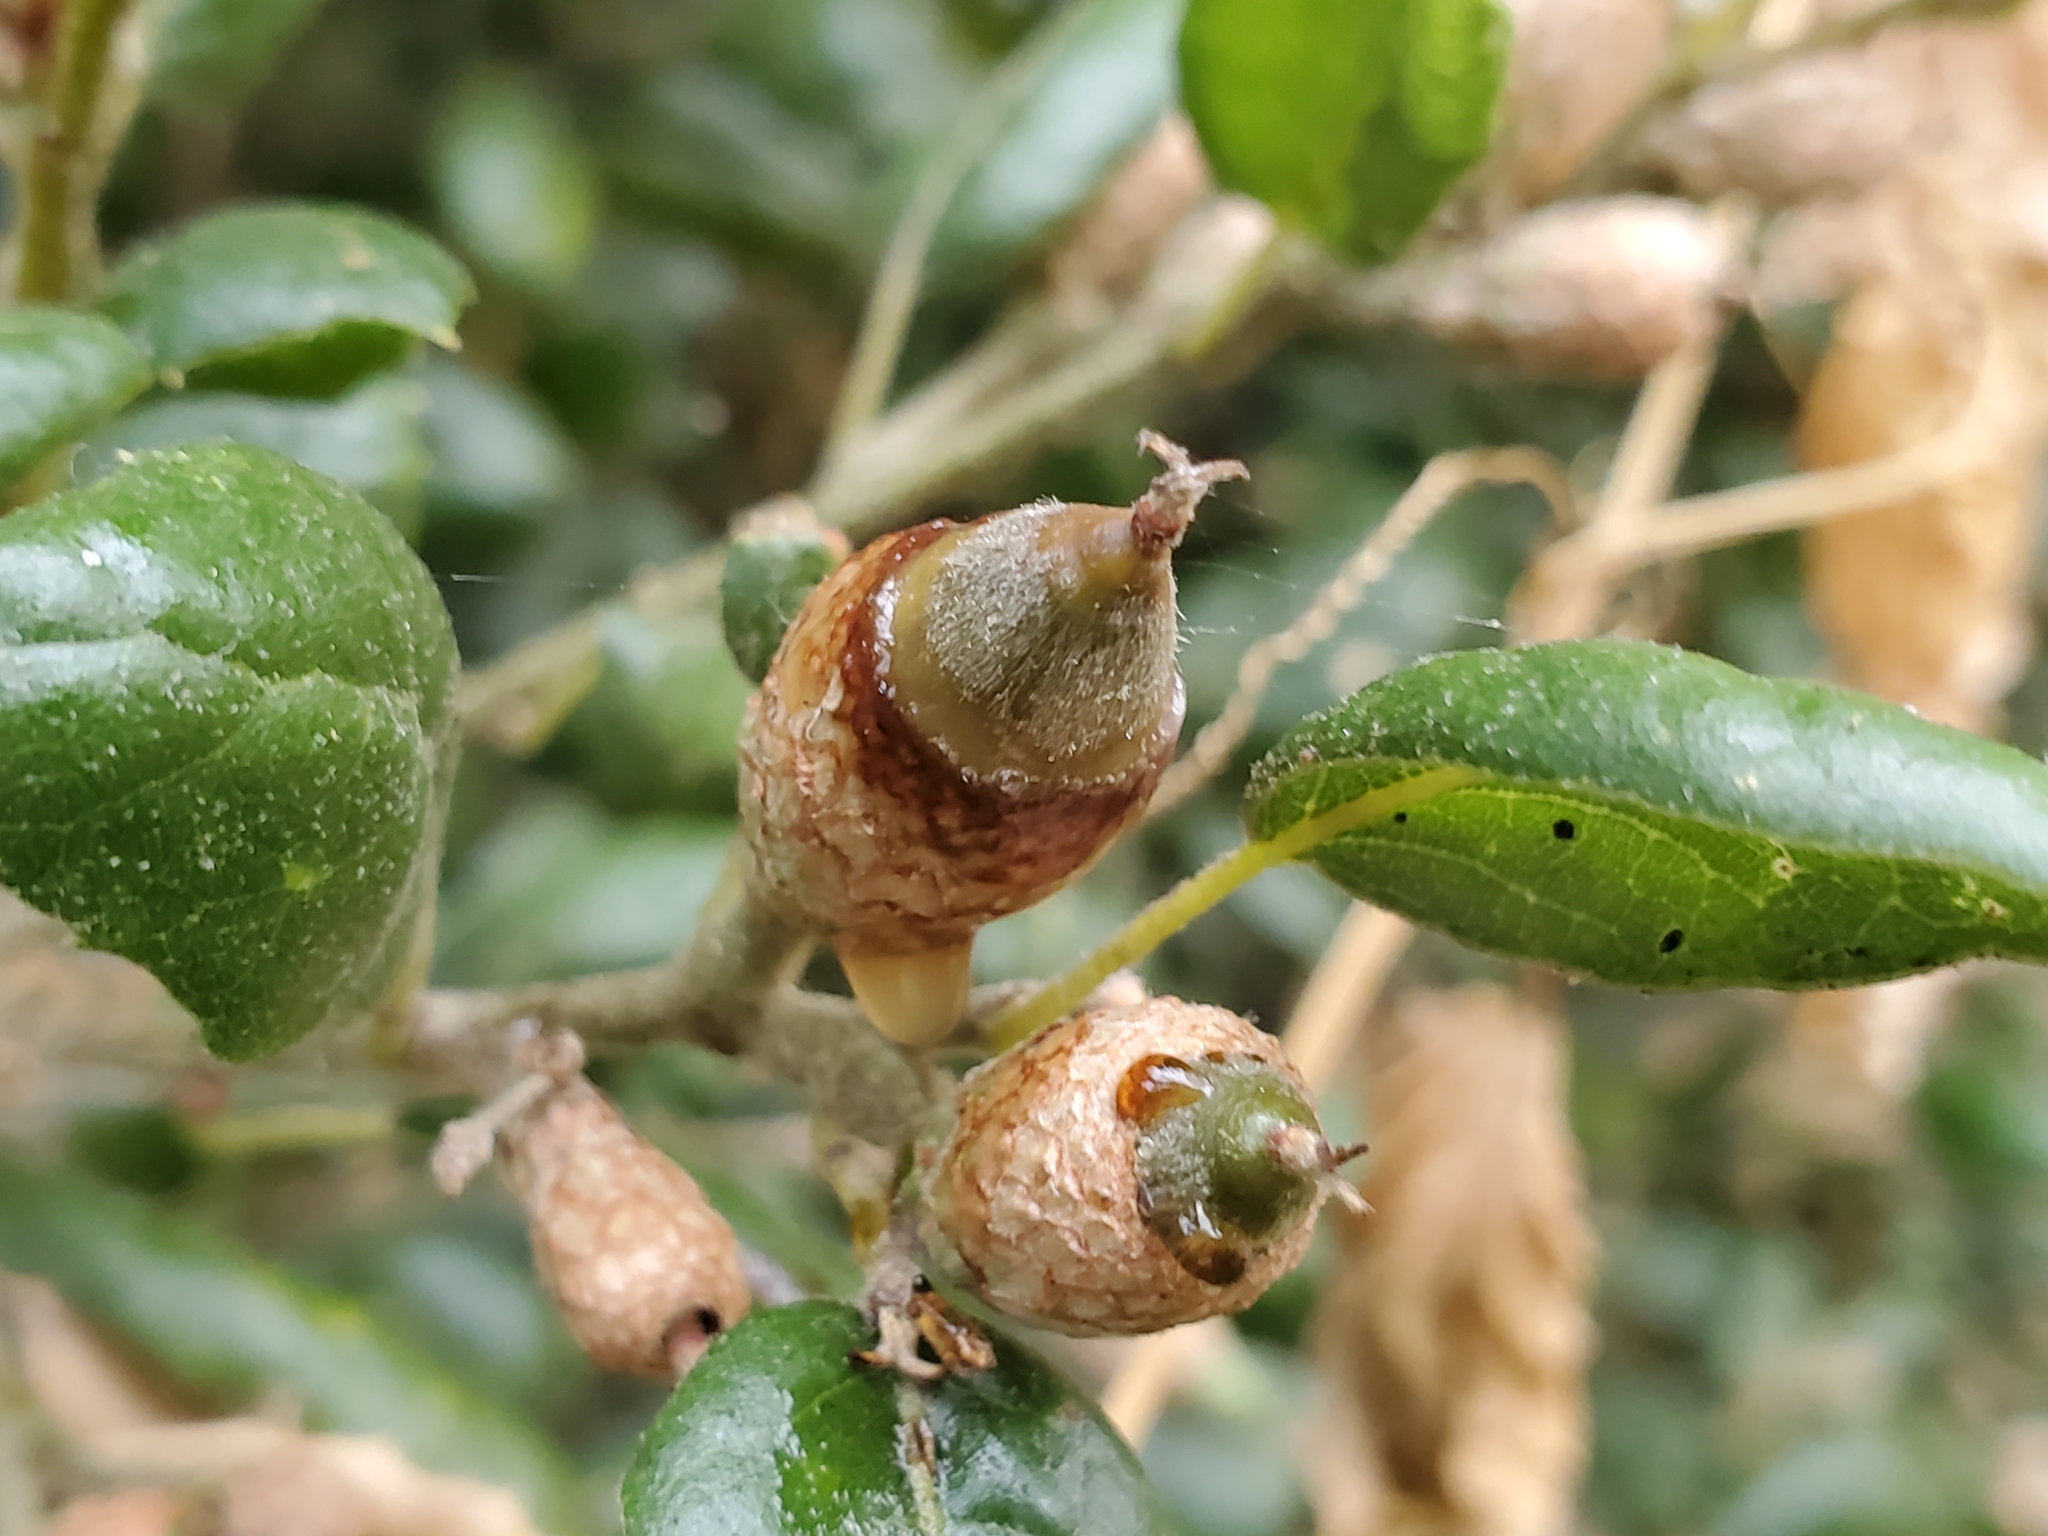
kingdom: Bacteria
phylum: Proteobacteria
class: Gammaproteobacteria
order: Enterobacterales
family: Enterobacteriaceae
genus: Lonsdalea
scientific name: Lonsdalea quercina
